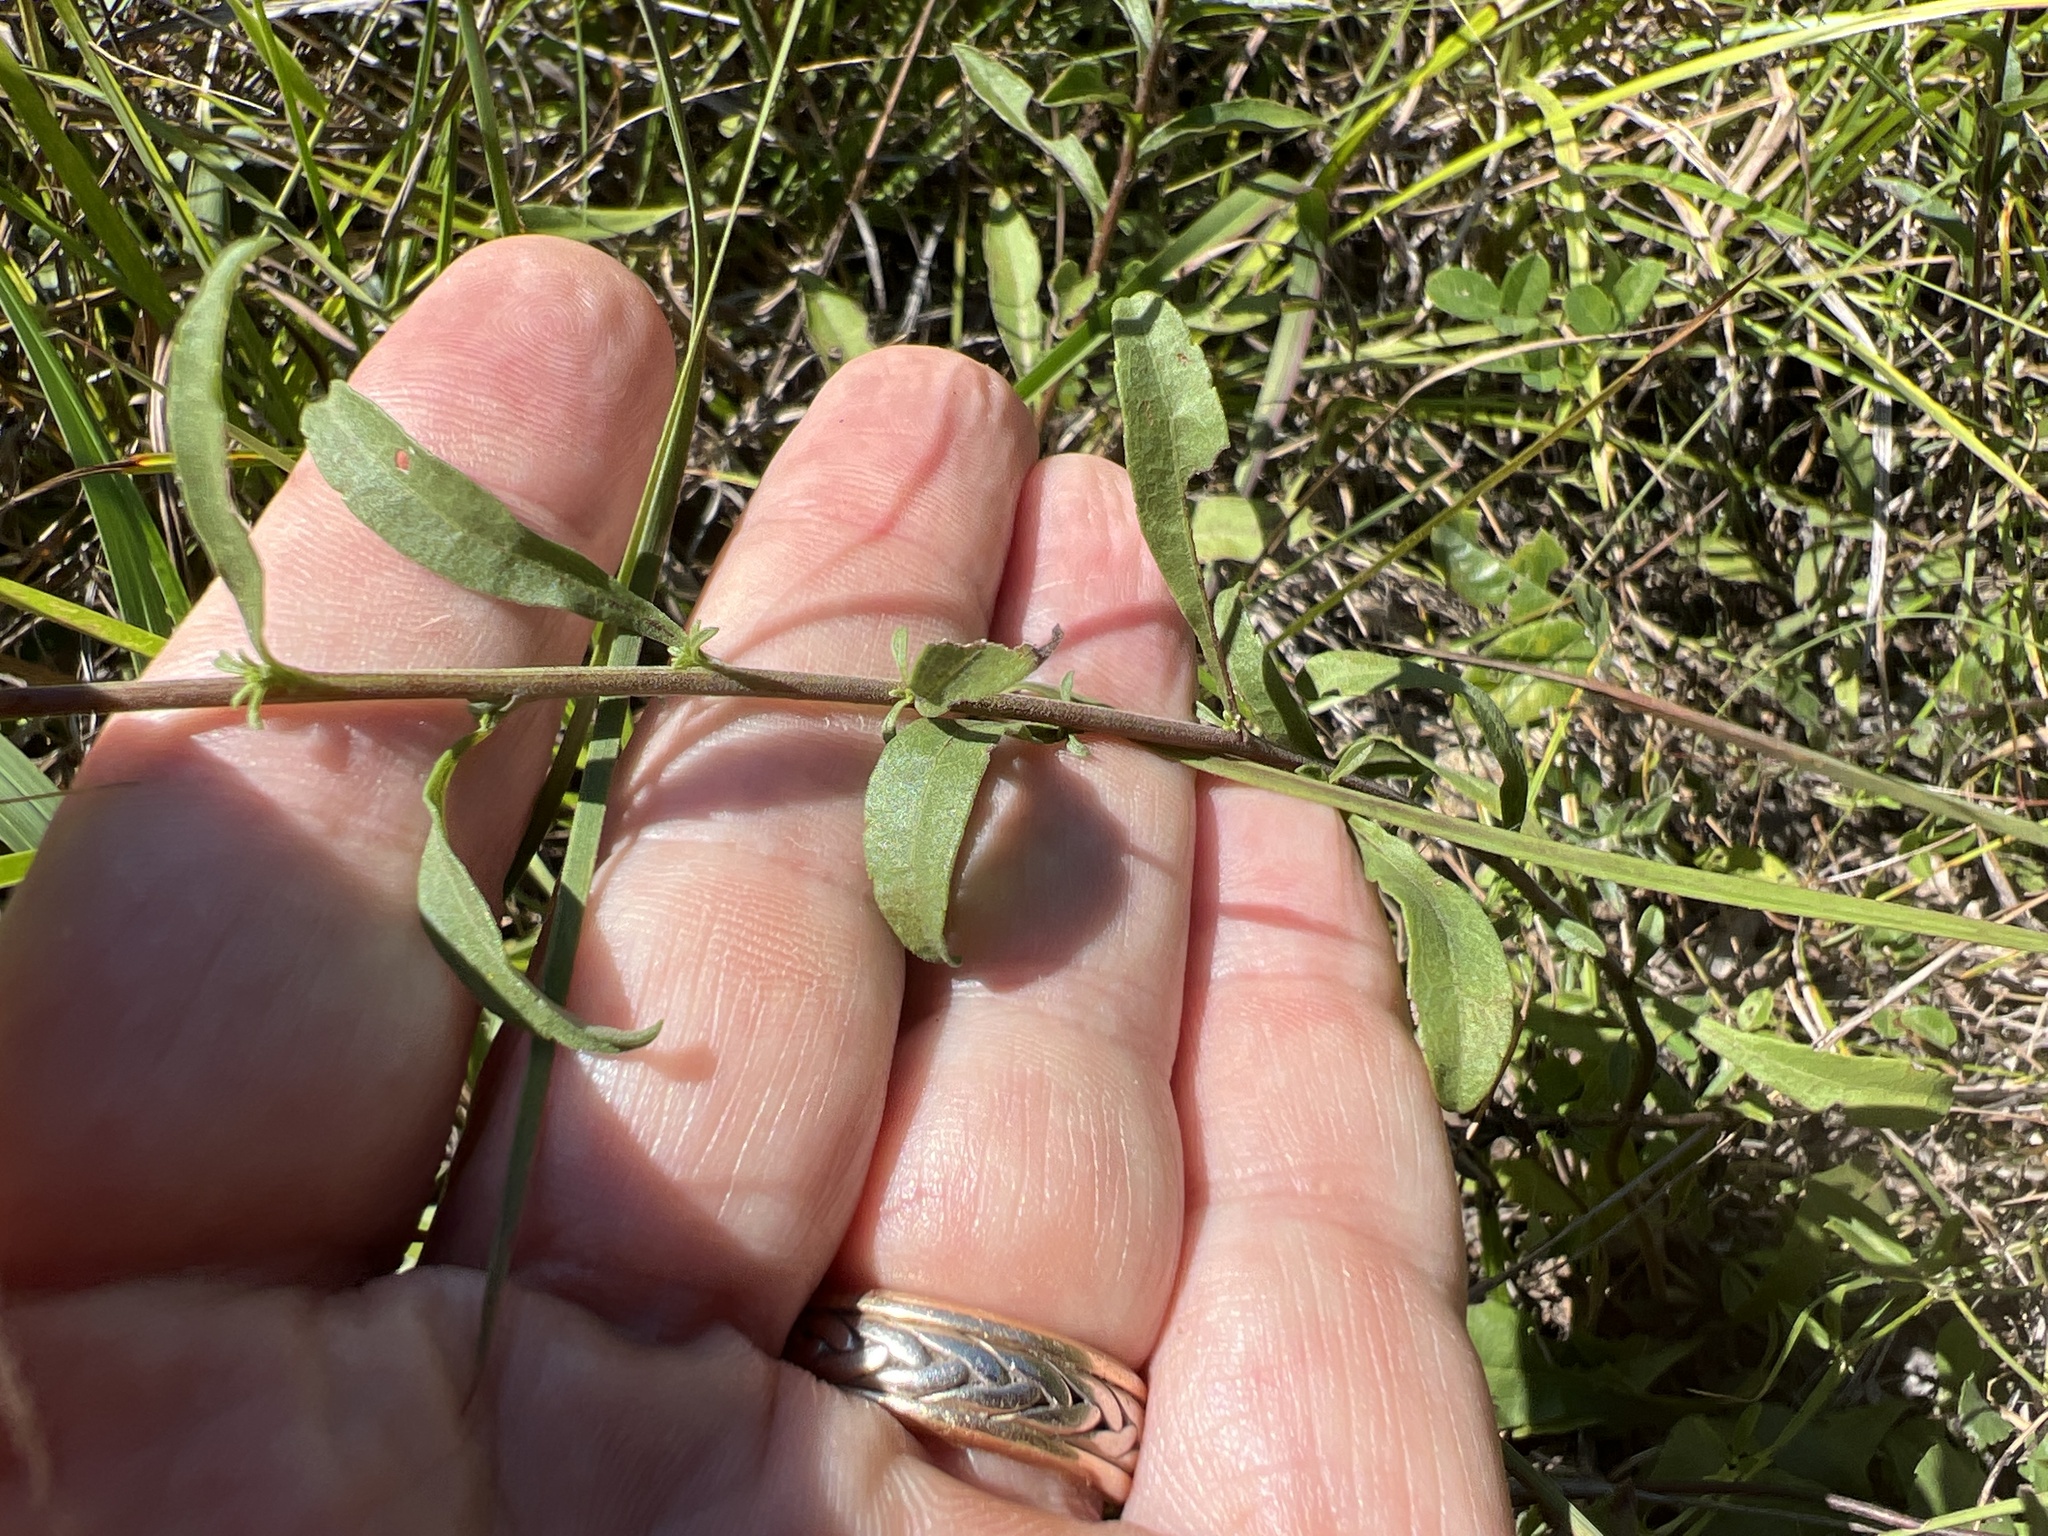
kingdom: Plantae
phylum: Tracheophyta
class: Magnoliopsida
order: Asterales
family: Asteraceae
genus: Solidago
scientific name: Solidago nemoralis
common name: Grey goldenrod
